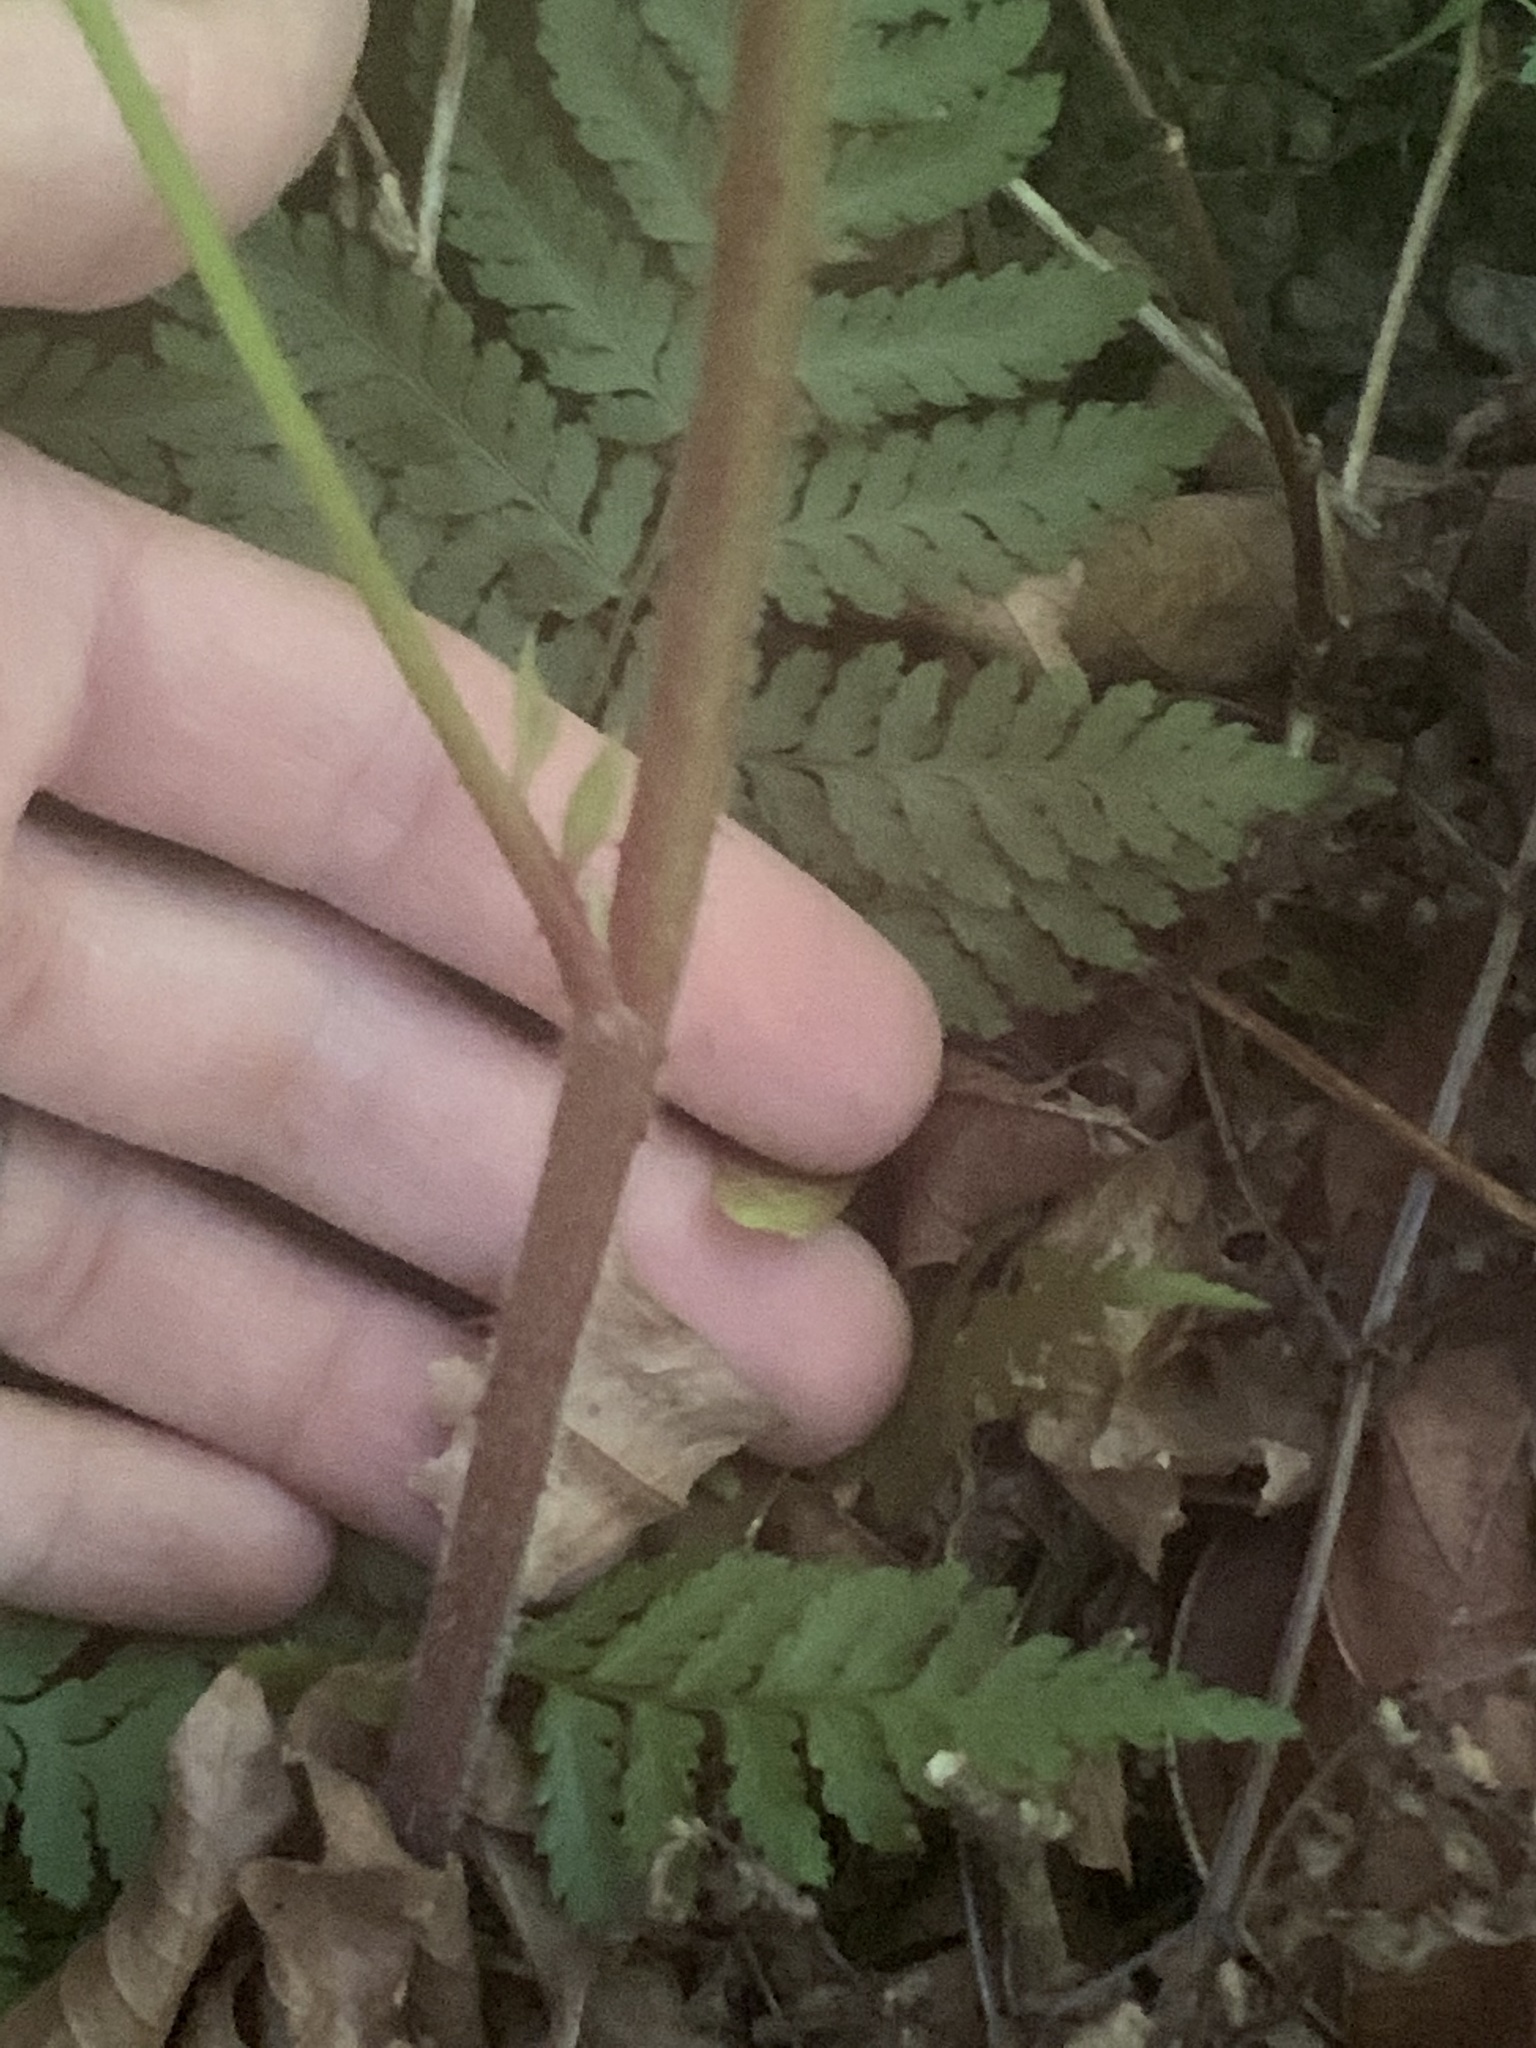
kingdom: Plantae
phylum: Tracheophyta
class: Magnoliopsida
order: Rosales
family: Rosaceae
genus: Rubus
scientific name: Rubus vestitus
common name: European blackberry
